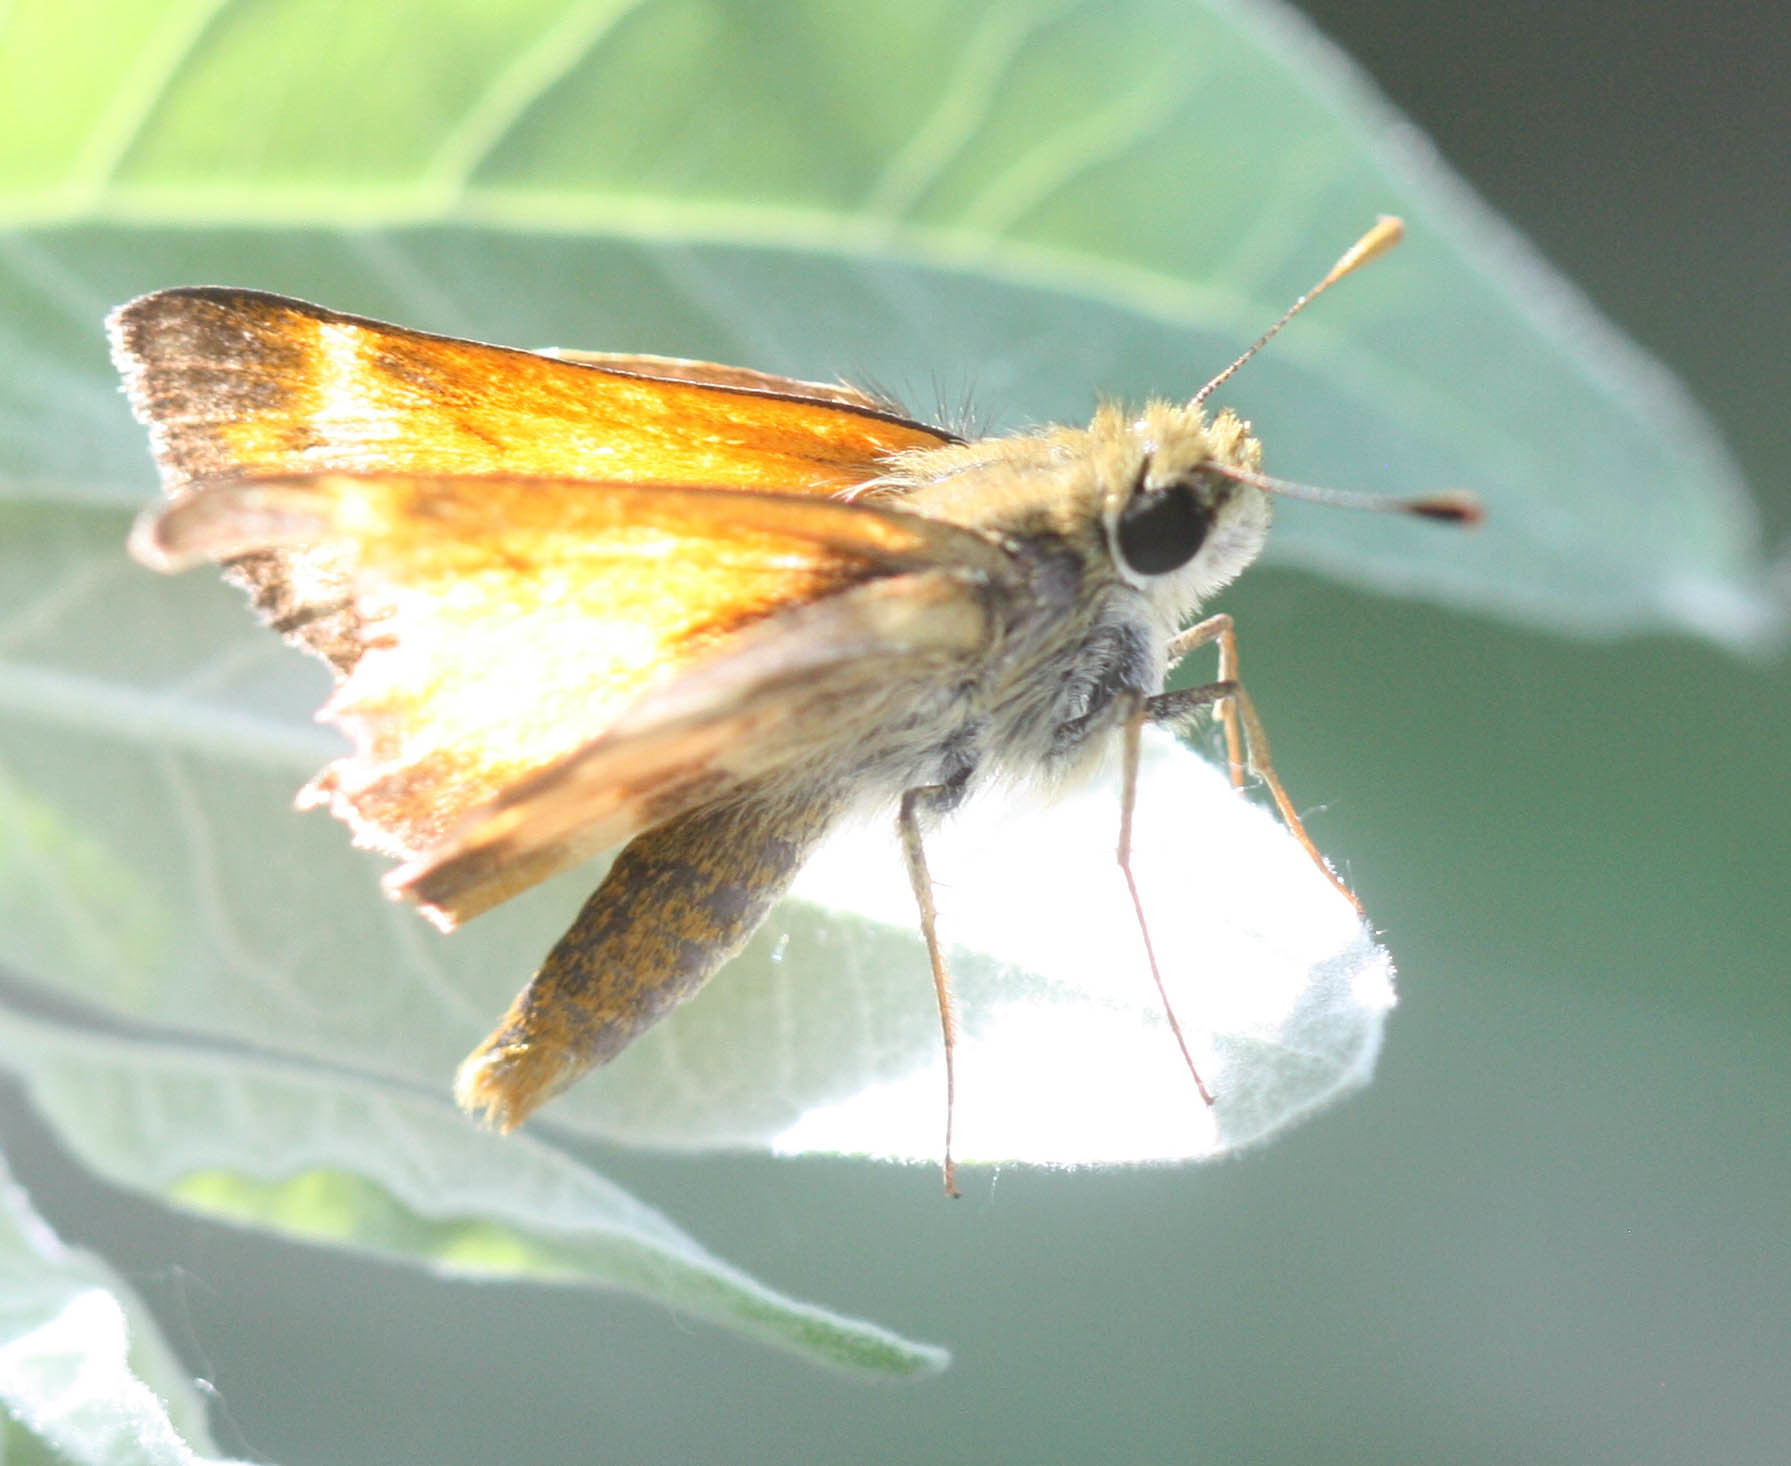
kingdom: Animalia
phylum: Arthropoda
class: Insecta
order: Lepidoptera
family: Hesperiidae
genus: Lon
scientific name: Lon taxiles
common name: Taxiles skipper
